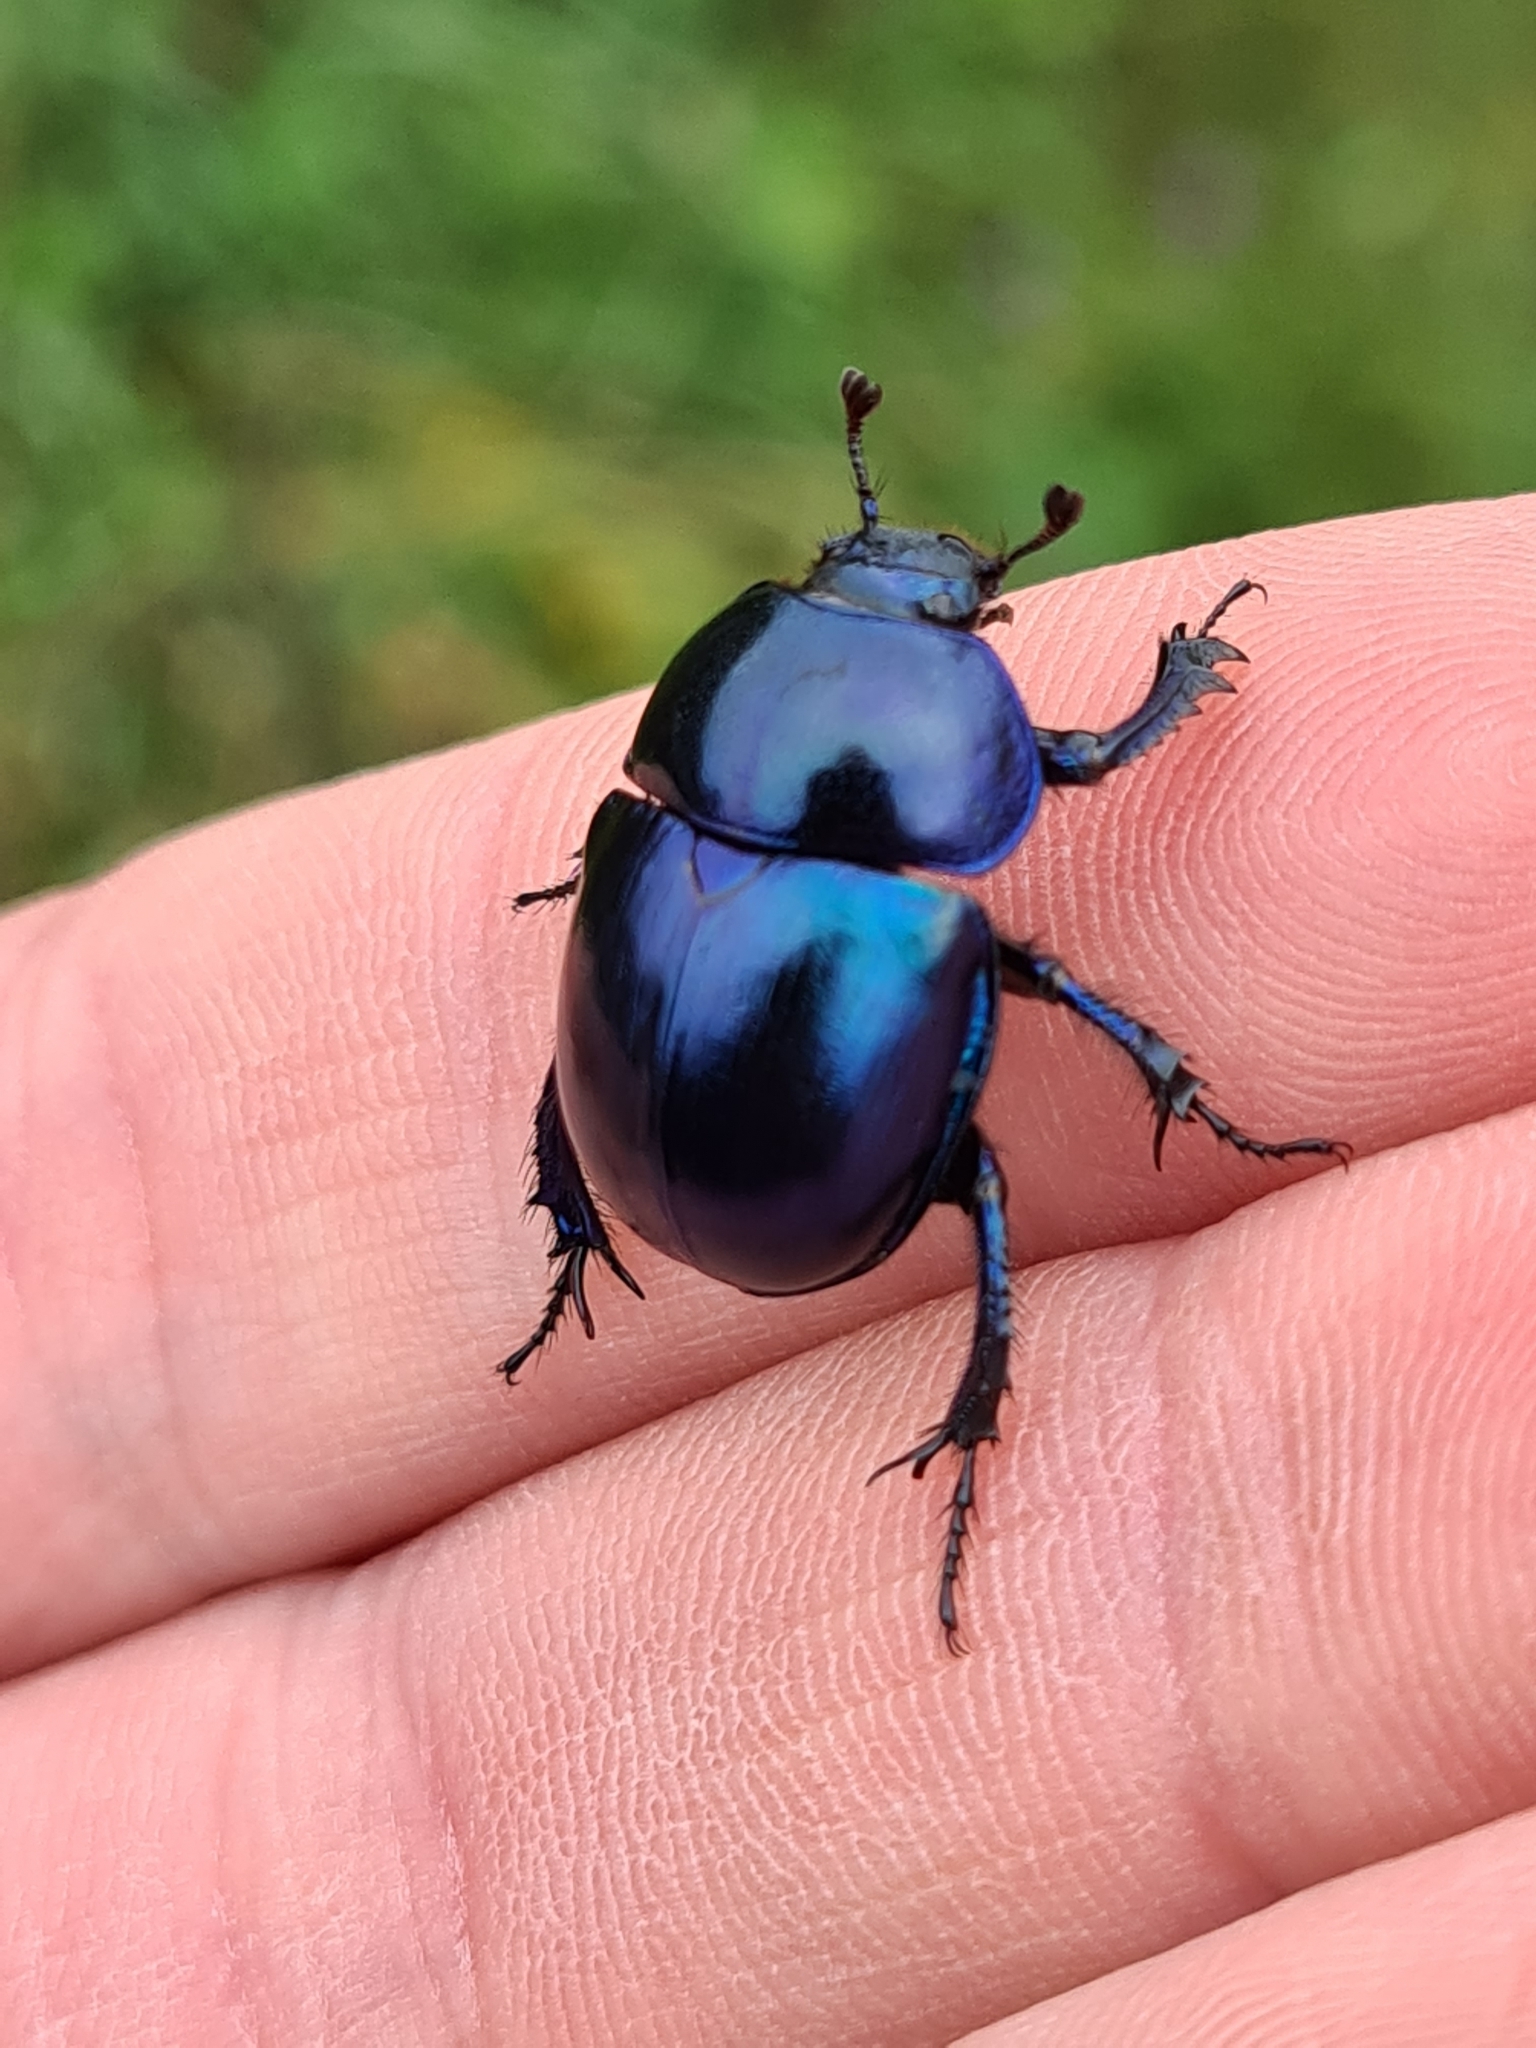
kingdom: Animalia
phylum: Arthropoda
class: Insecta
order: Coleoptera
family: Geotrupidae
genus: Trypocopris
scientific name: Trypocopris vernalis
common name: Spring dumbledor
